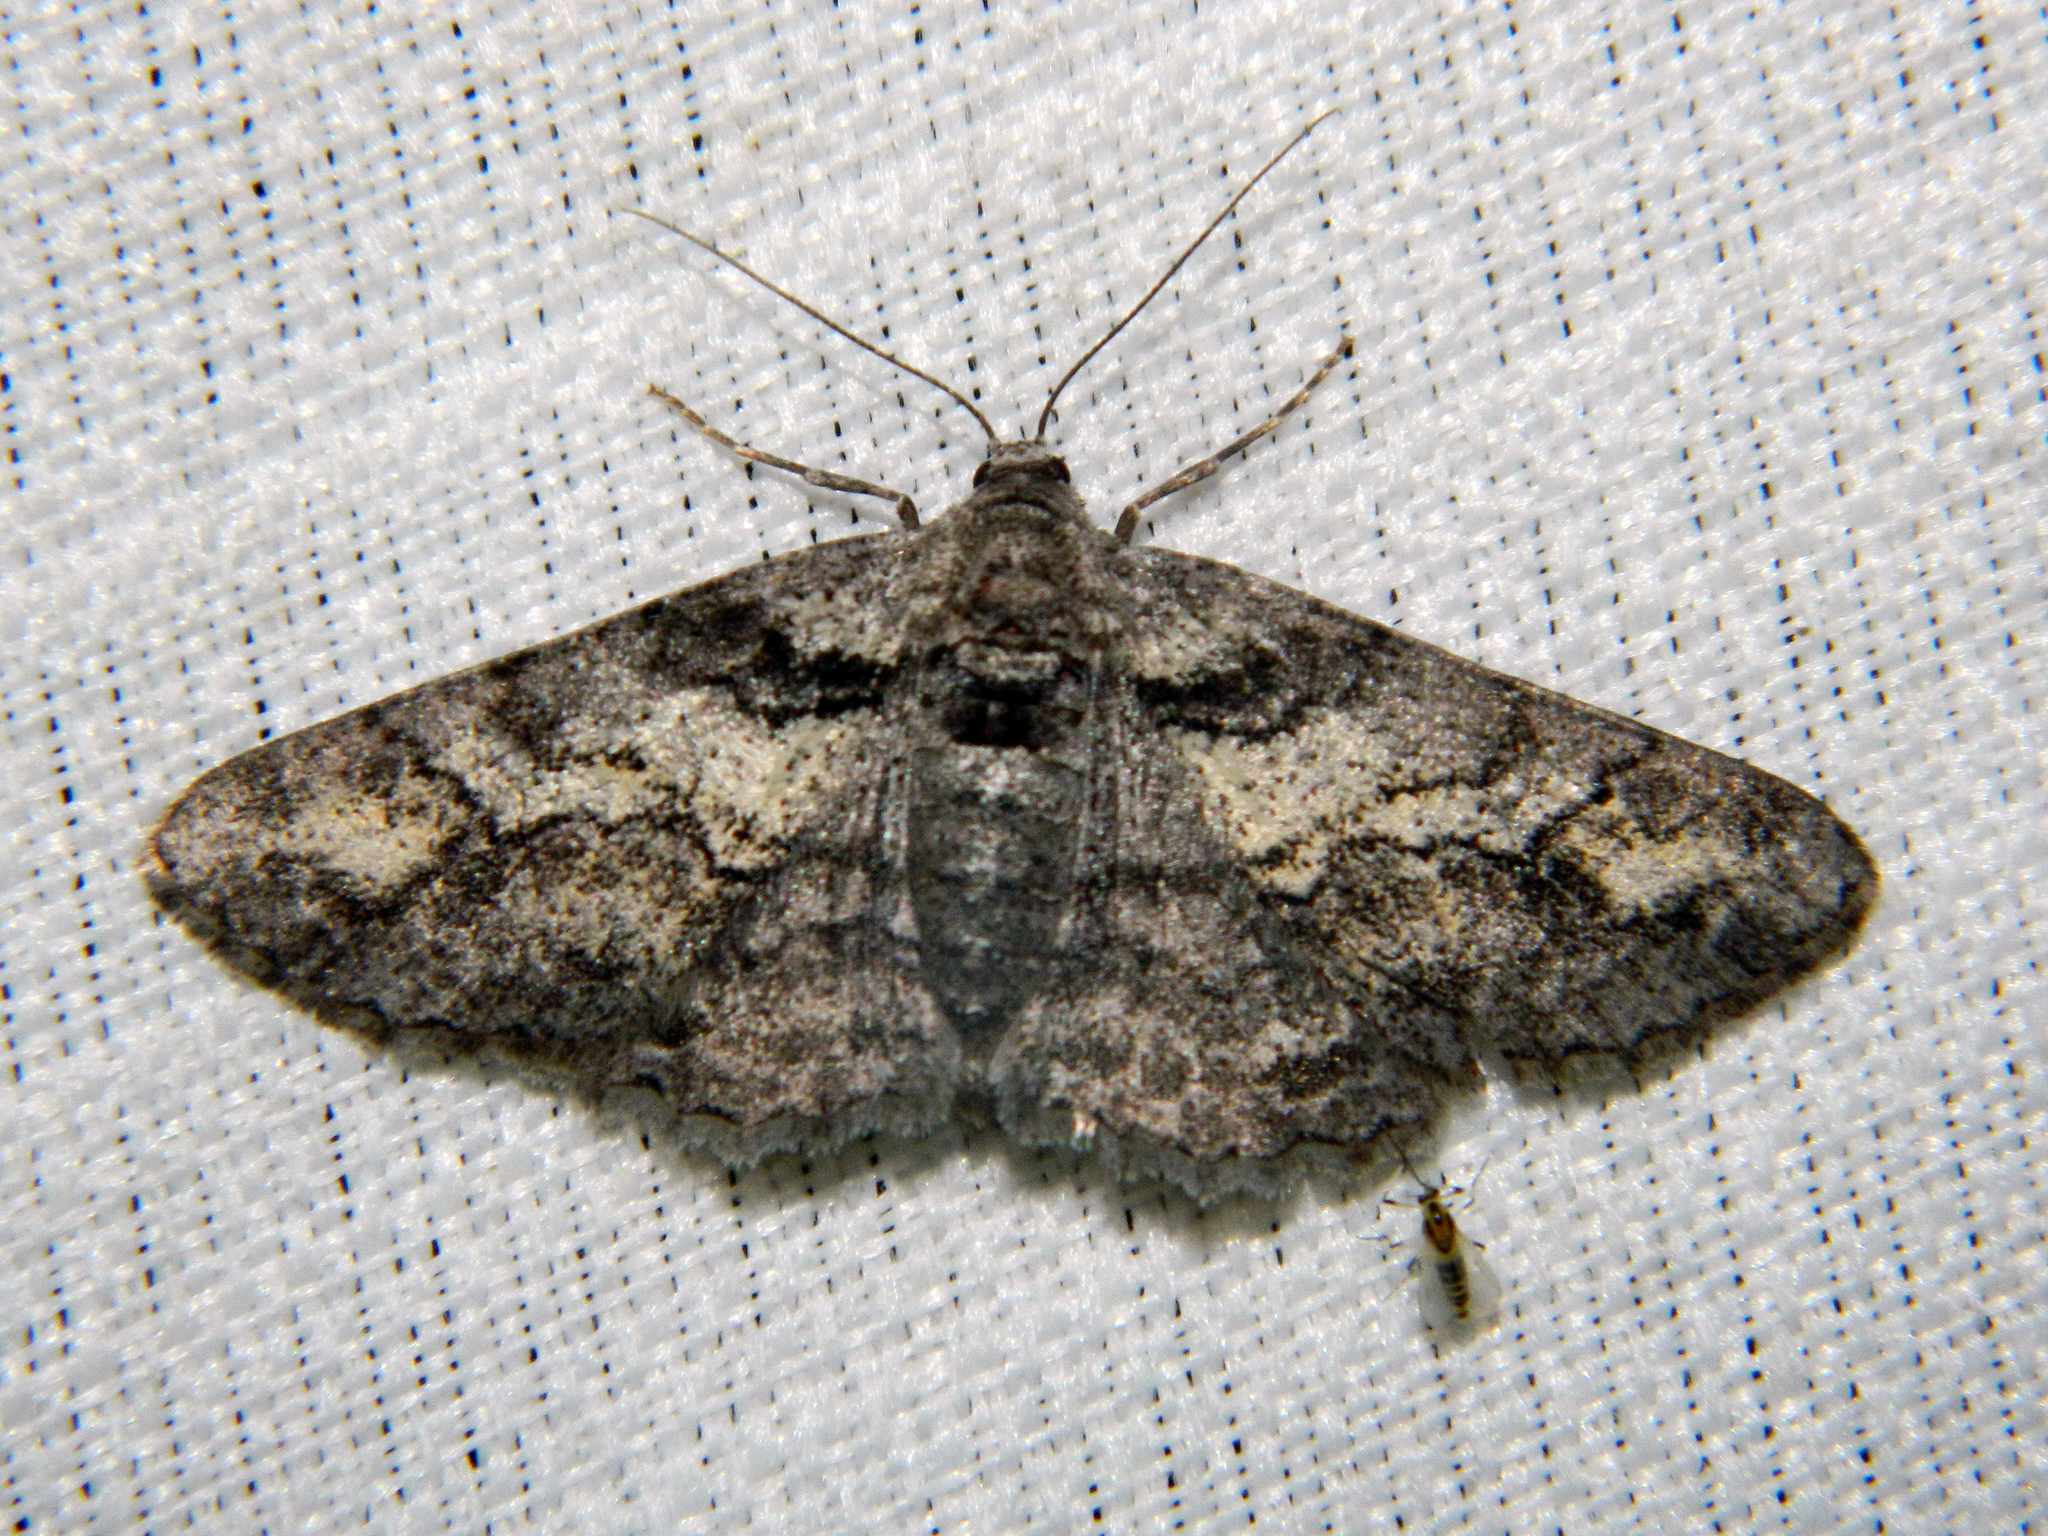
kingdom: Animalia
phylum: Arthropoda
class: Insecta
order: Lepidoptera
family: Geometridae
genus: Cleora
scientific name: Cleora projecta
